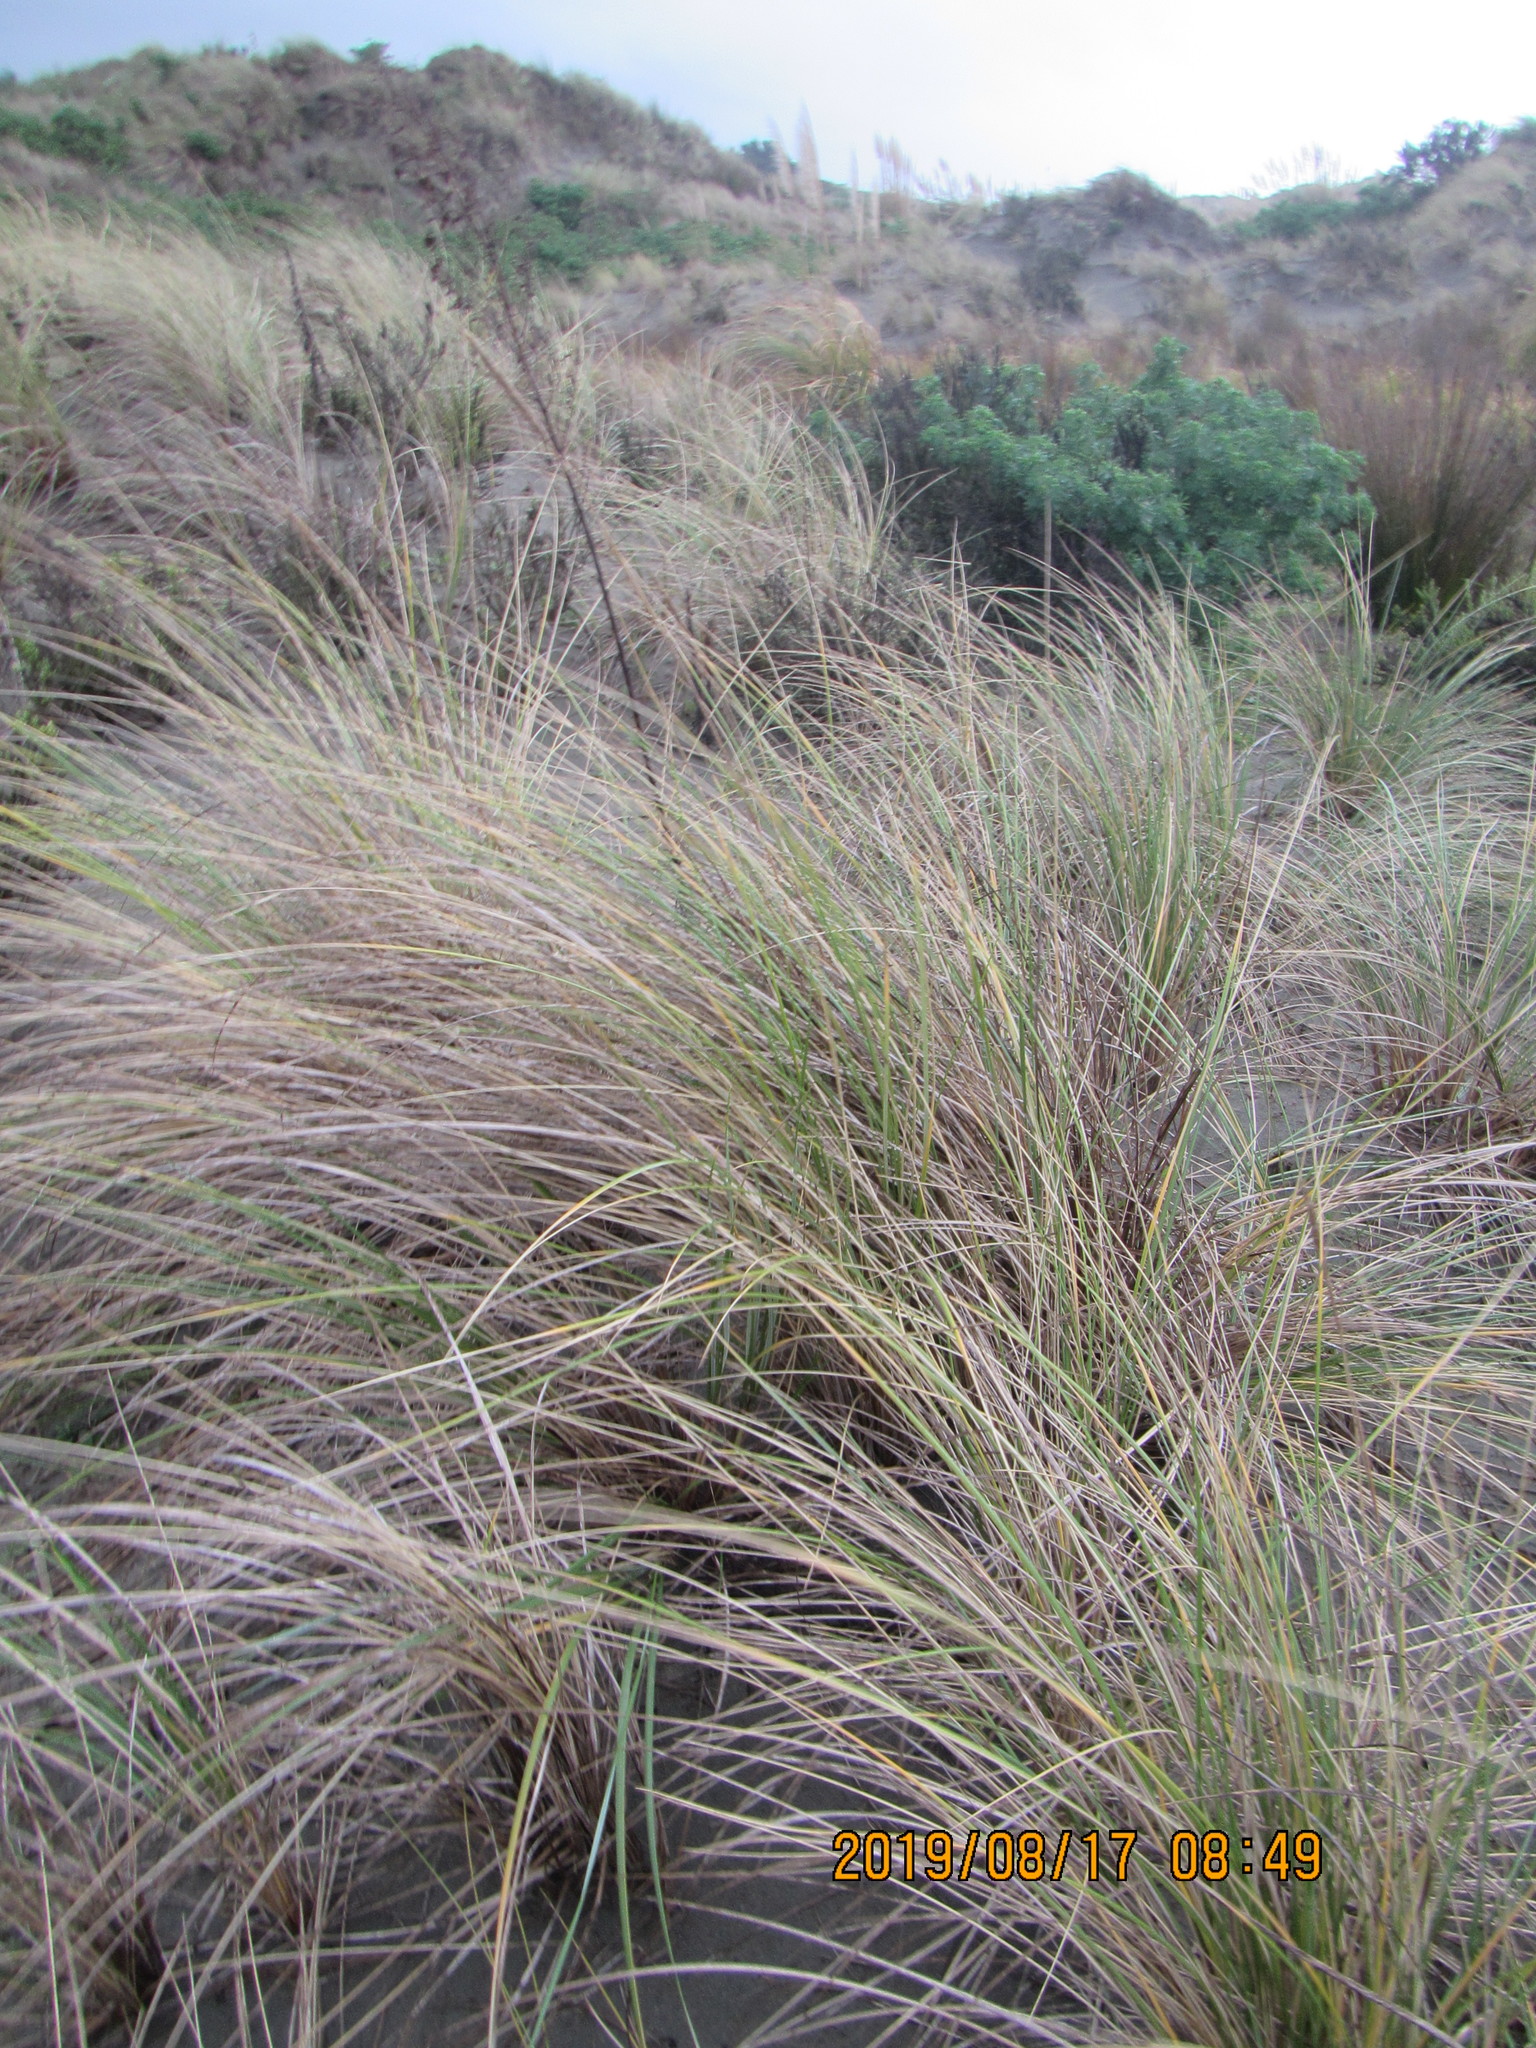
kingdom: Plantae
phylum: Tracheophyta
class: Liliopsida
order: Poales
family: Poaceae
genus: Calamagrostis
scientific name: Calamagrostis arenaria
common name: European beachgrass
